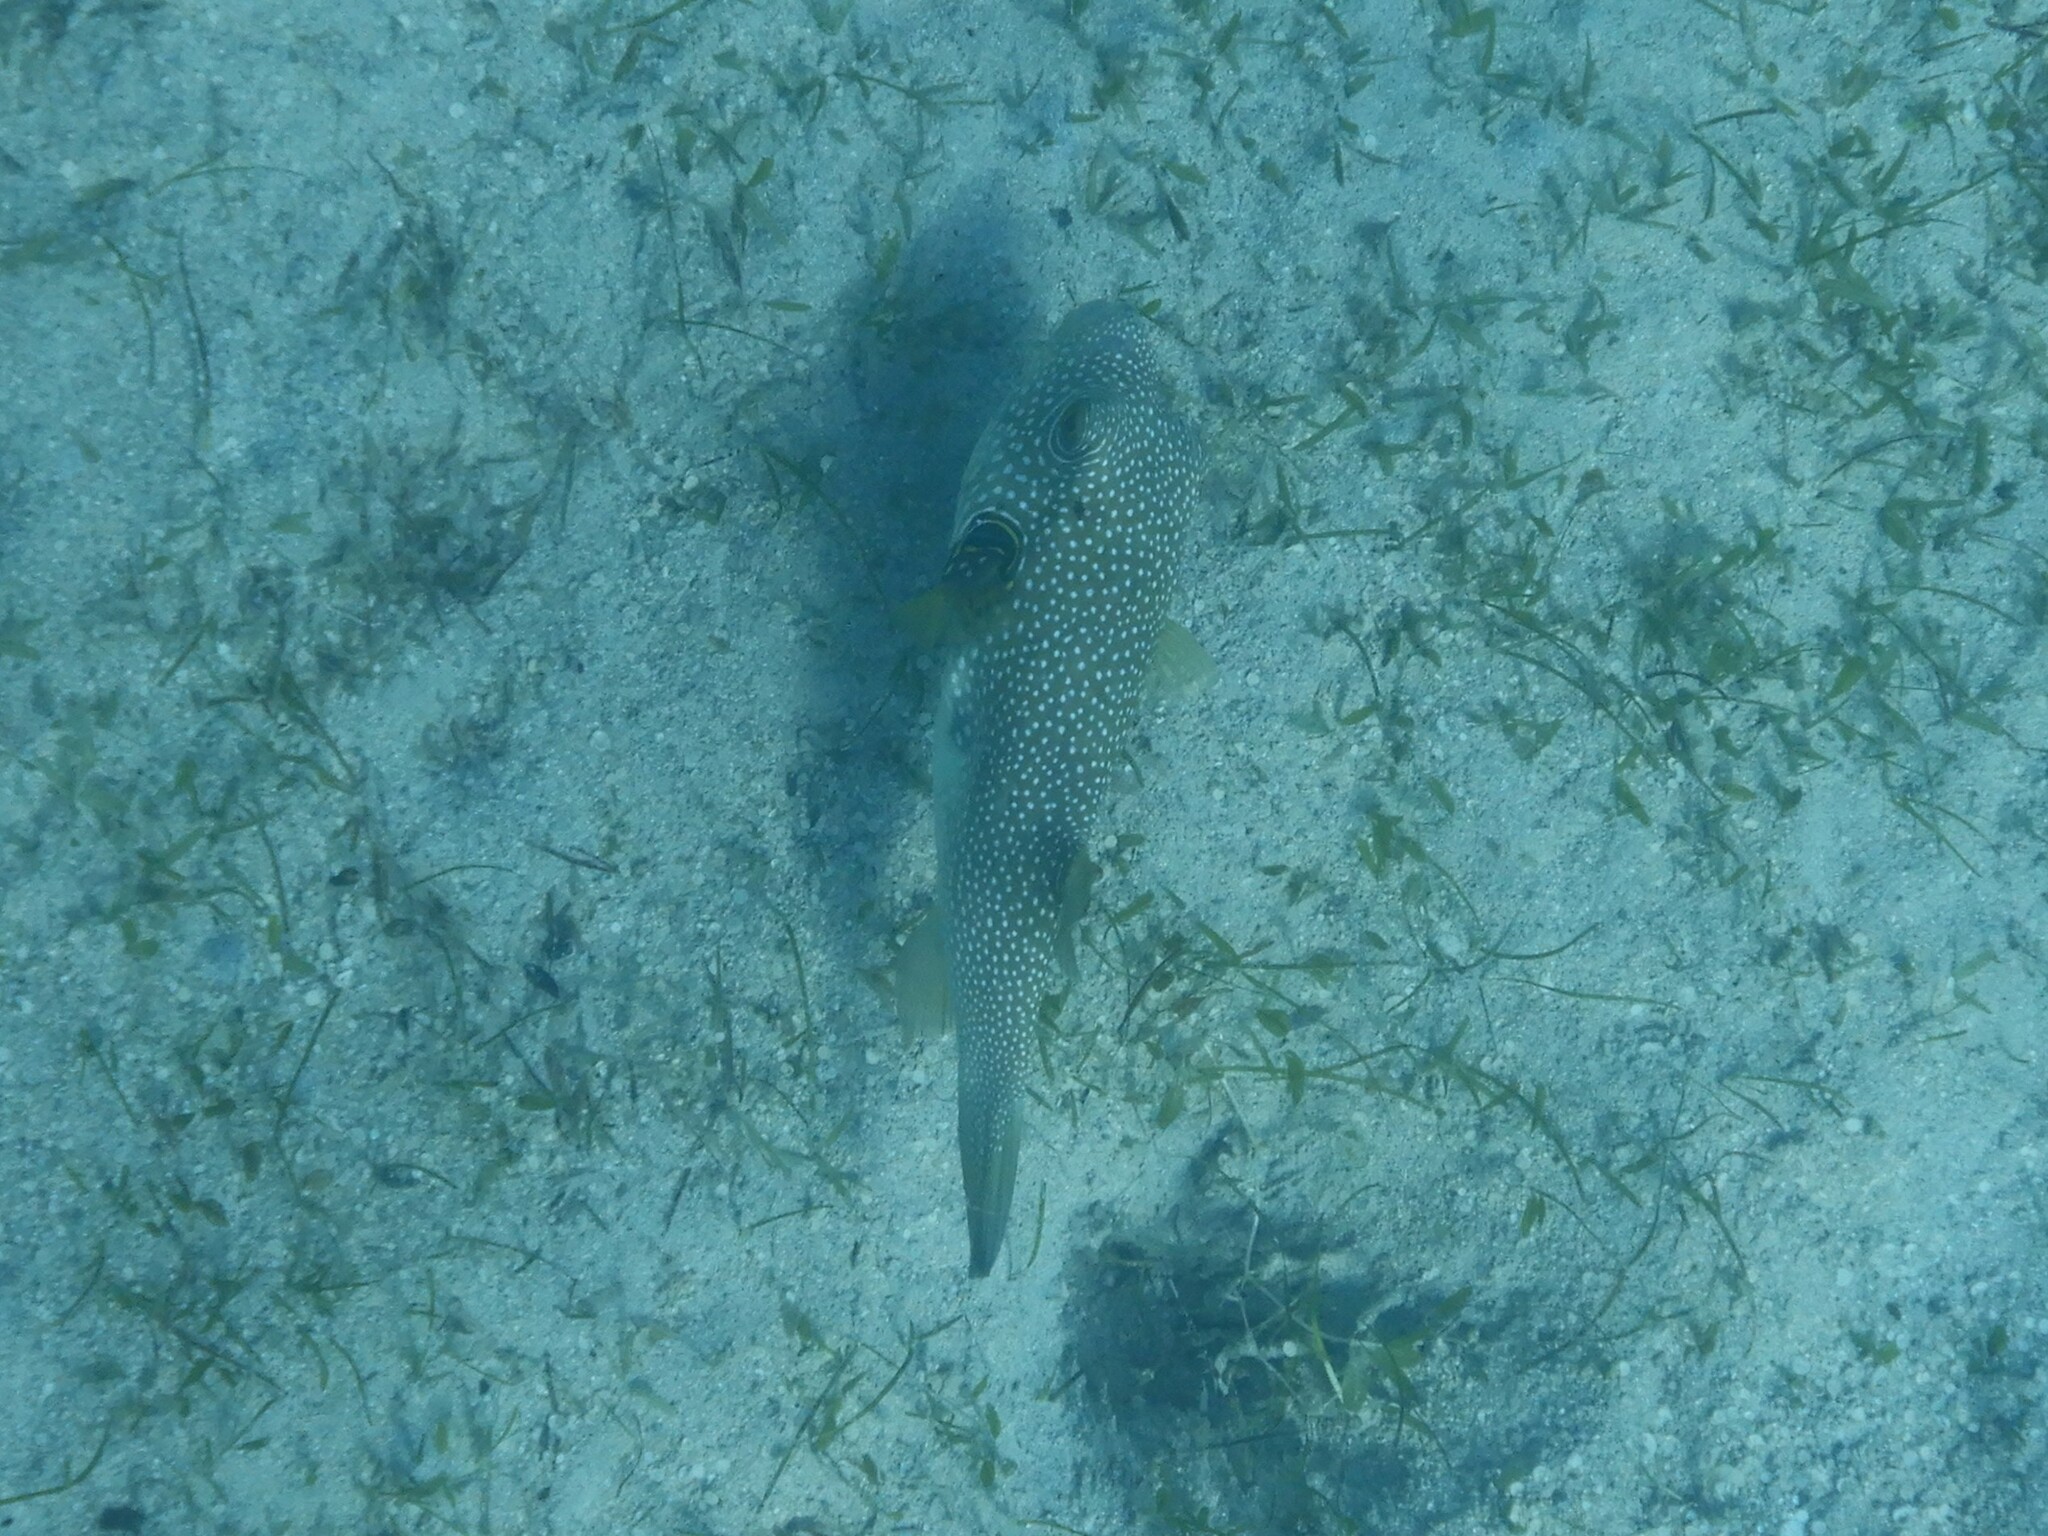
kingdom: Animalia
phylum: Chordata
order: Tetraodontiformes
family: Tetraodontidae
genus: Arothron
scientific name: Arothron hispidus
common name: Stripebelly puffer
